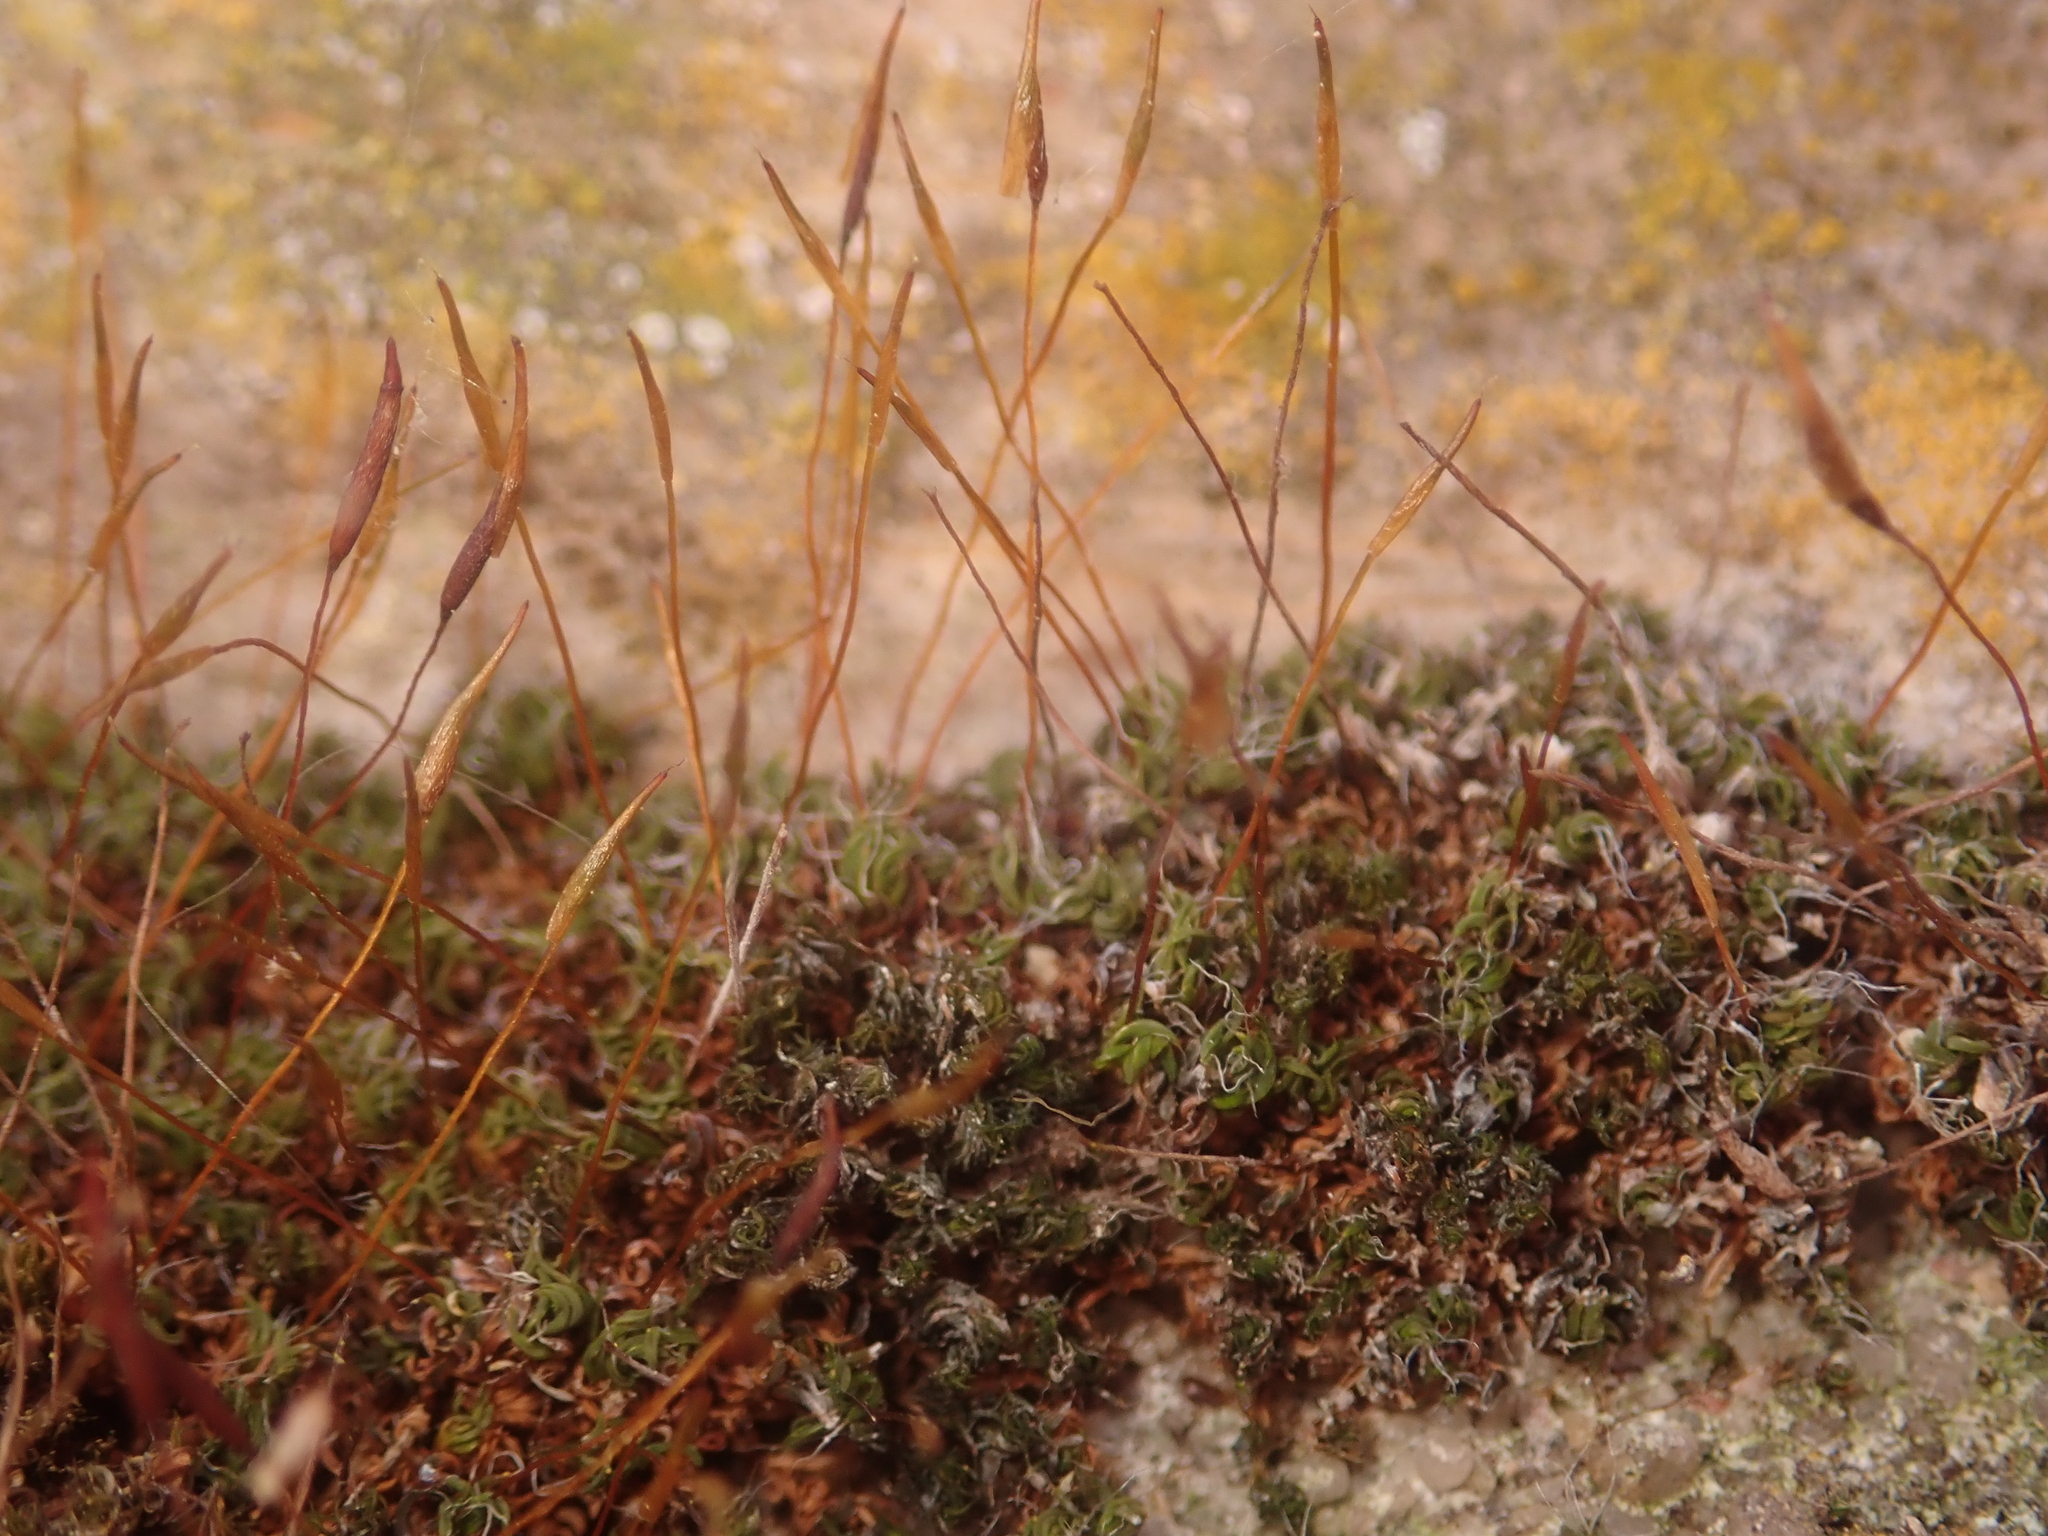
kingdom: Plantae
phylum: Bryophyta
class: Bryopsida
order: Pottiales
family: Pottiaceae
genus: Tortula
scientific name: Tortula muralis
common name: Wall screw-moss
